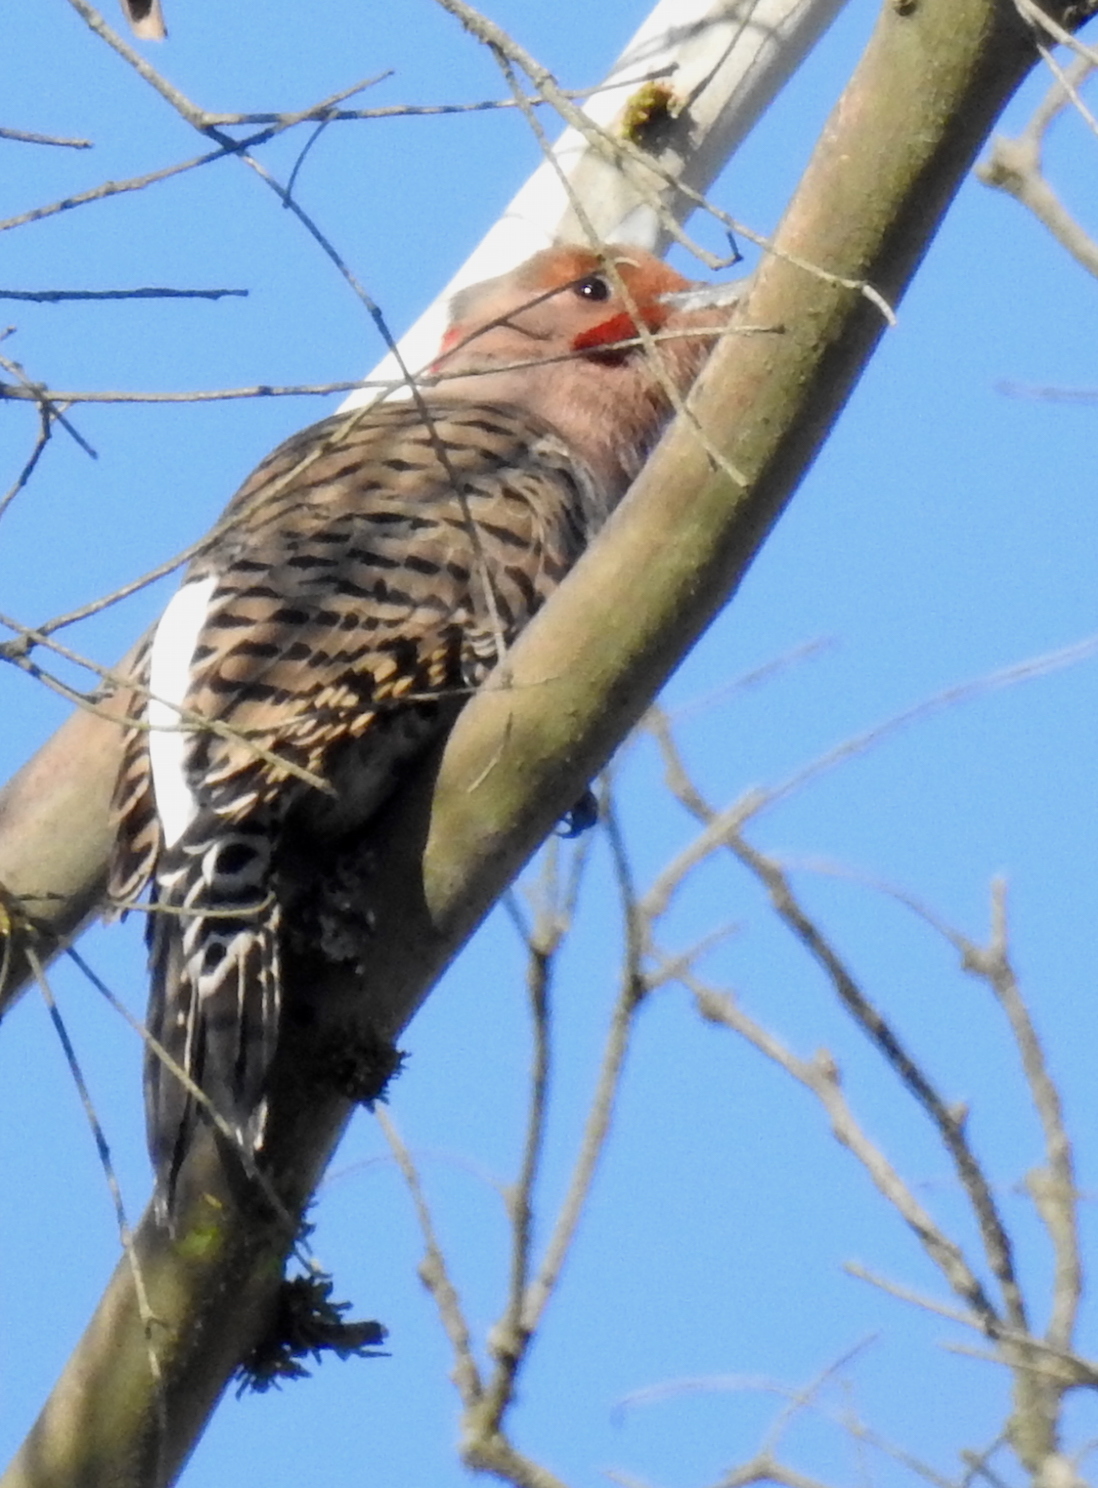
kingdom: Animalia
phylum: Chordata
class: Aves
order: Piciformes
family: Picidae
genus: Colaptes
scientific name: Colaptes
